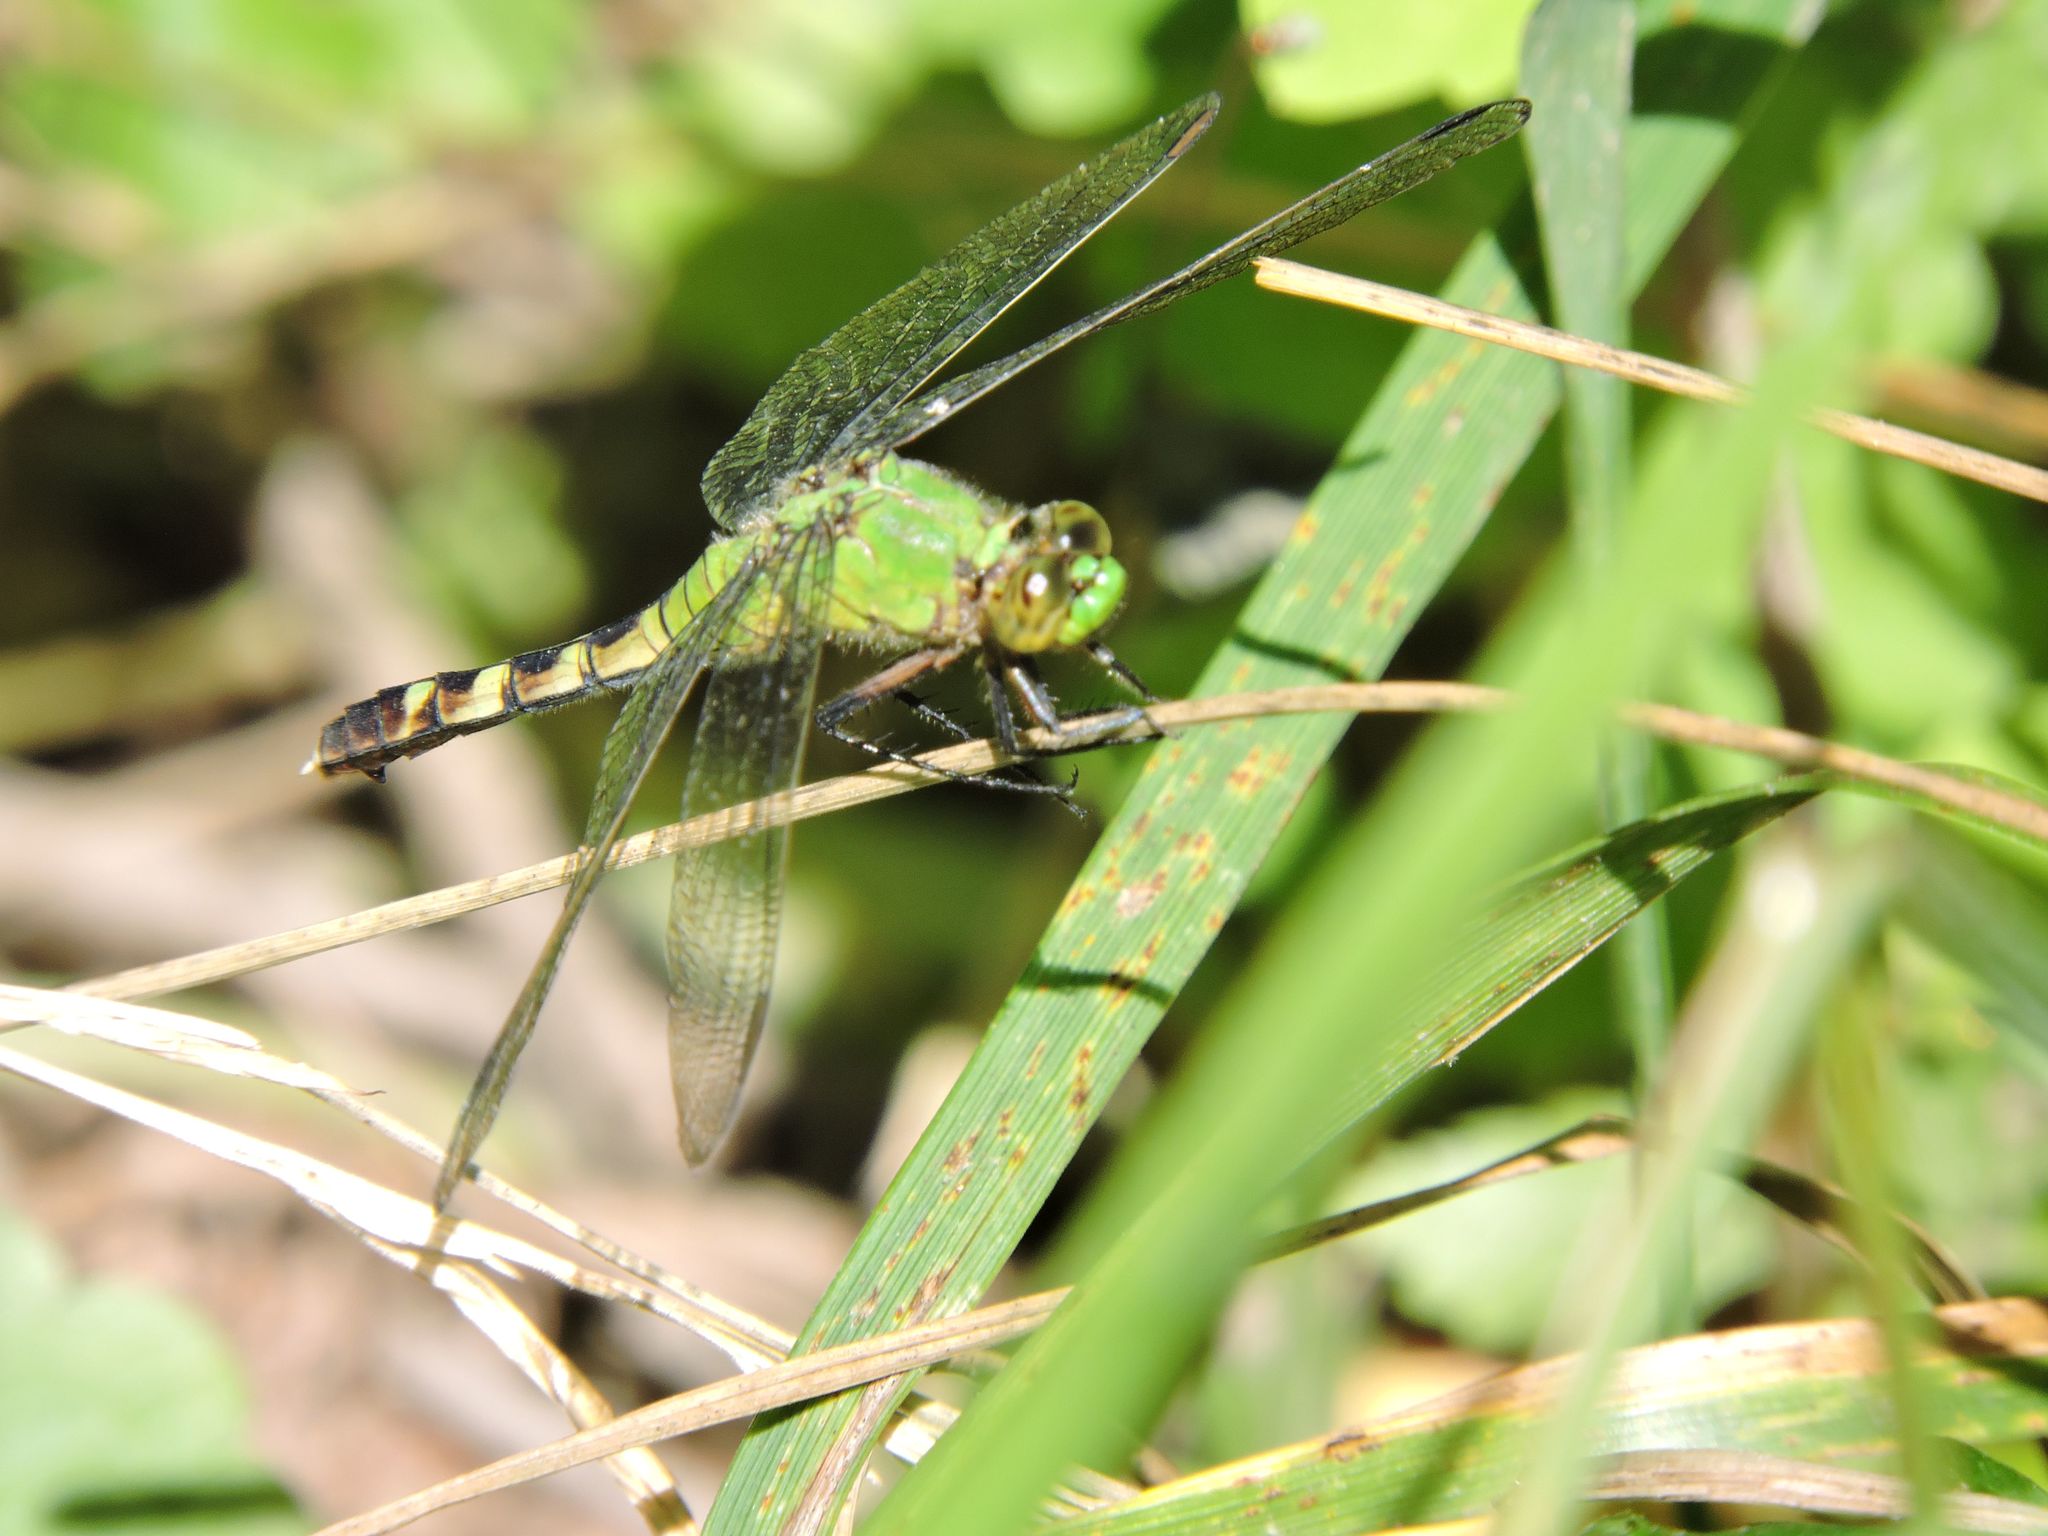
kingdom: Animalia
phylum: Arthropoda
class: Insecta
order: Odonata
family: Libellulidae
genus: Erythemis
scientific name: Erythemis simplicicollis
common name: Eastern pondhawk
